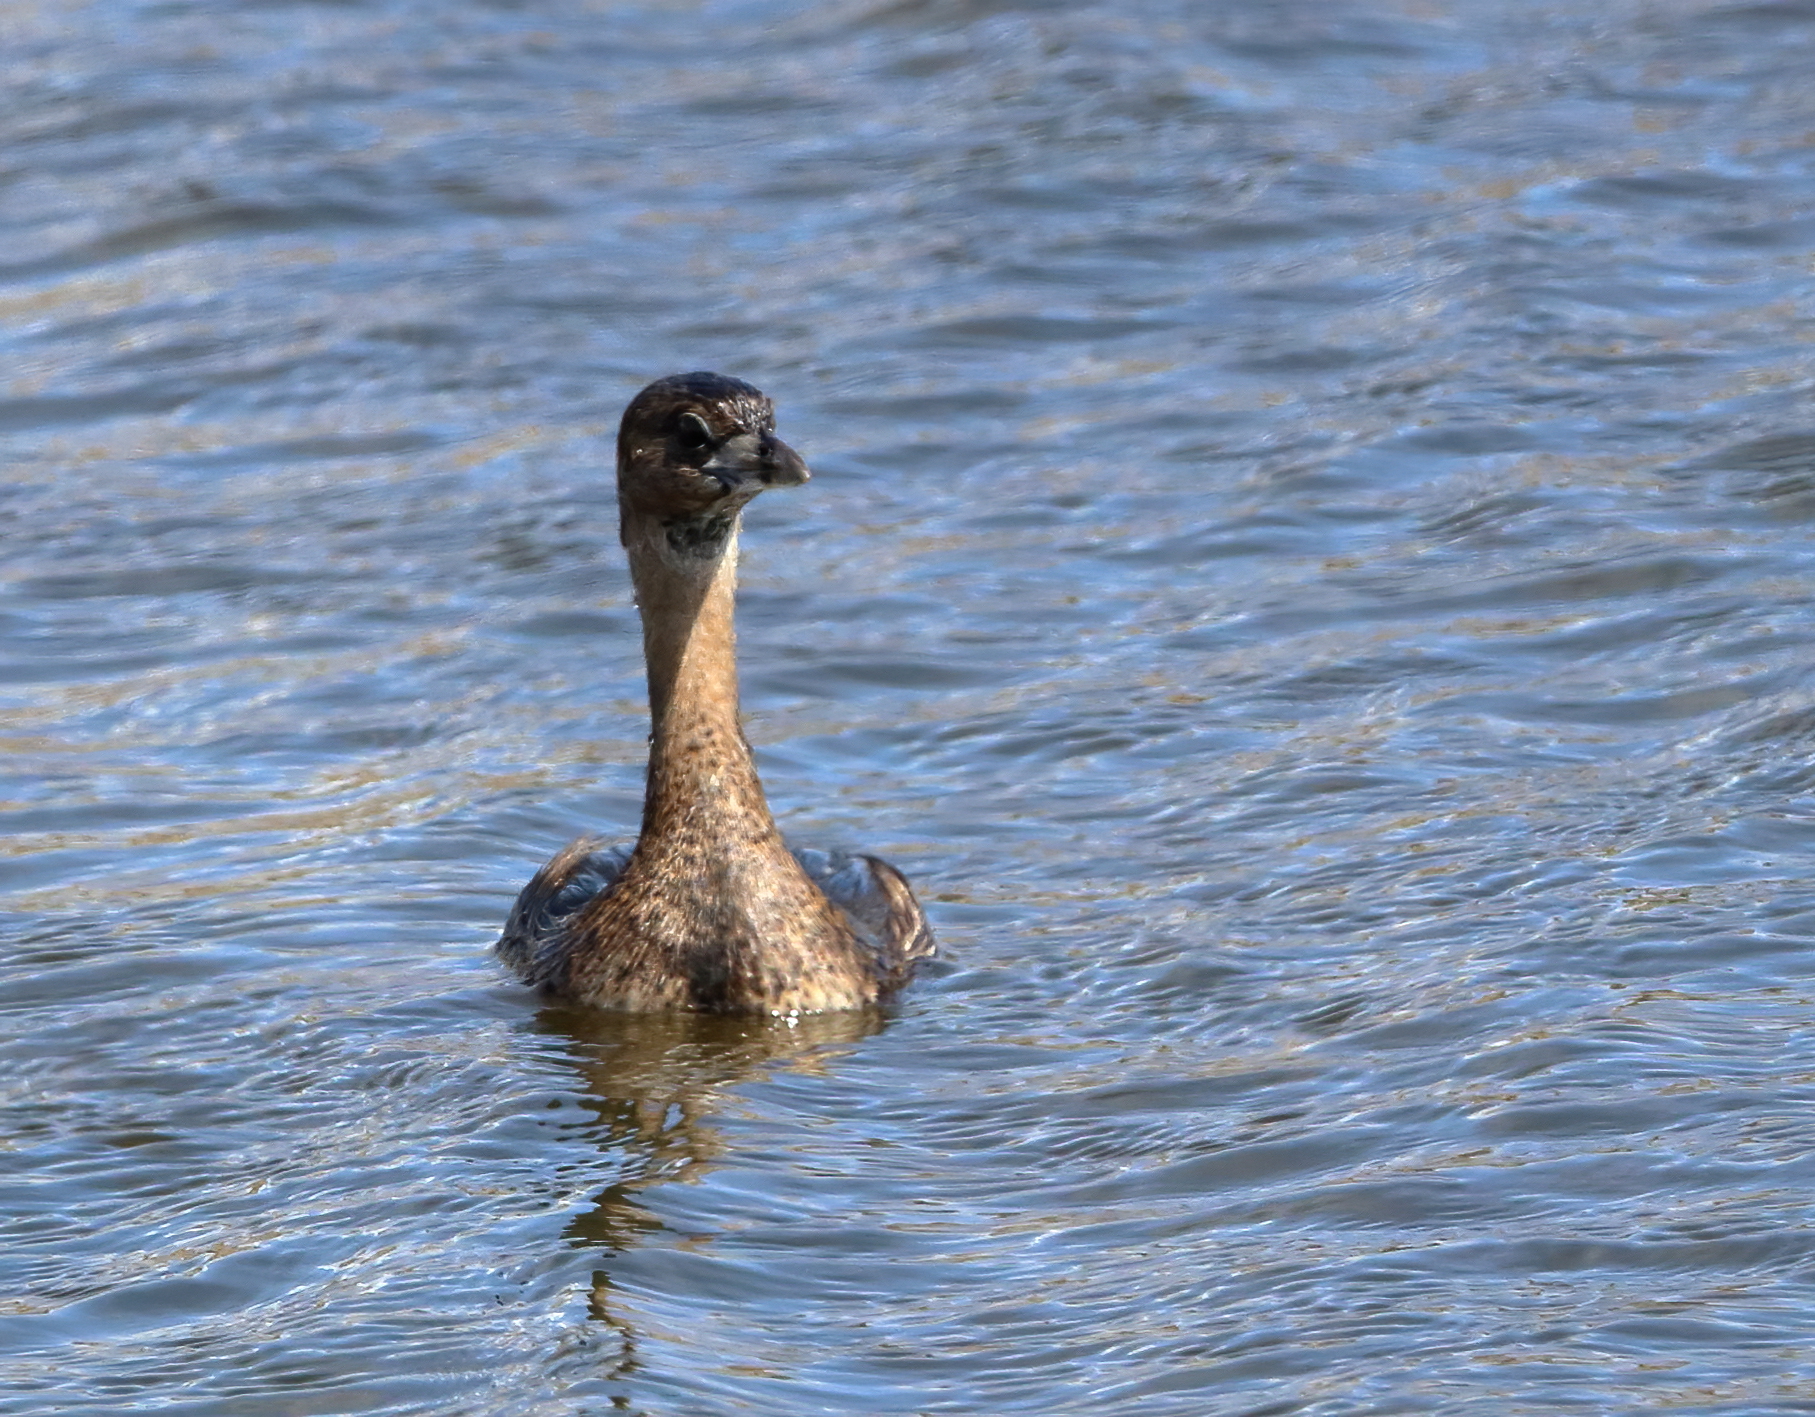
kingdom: Animalia
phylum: Chordata
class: Aves
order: Podicipediformes
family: Podicipedidae
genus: Podilymbus
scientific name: Podilymbus podiceps
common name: Pied-billed grebe
